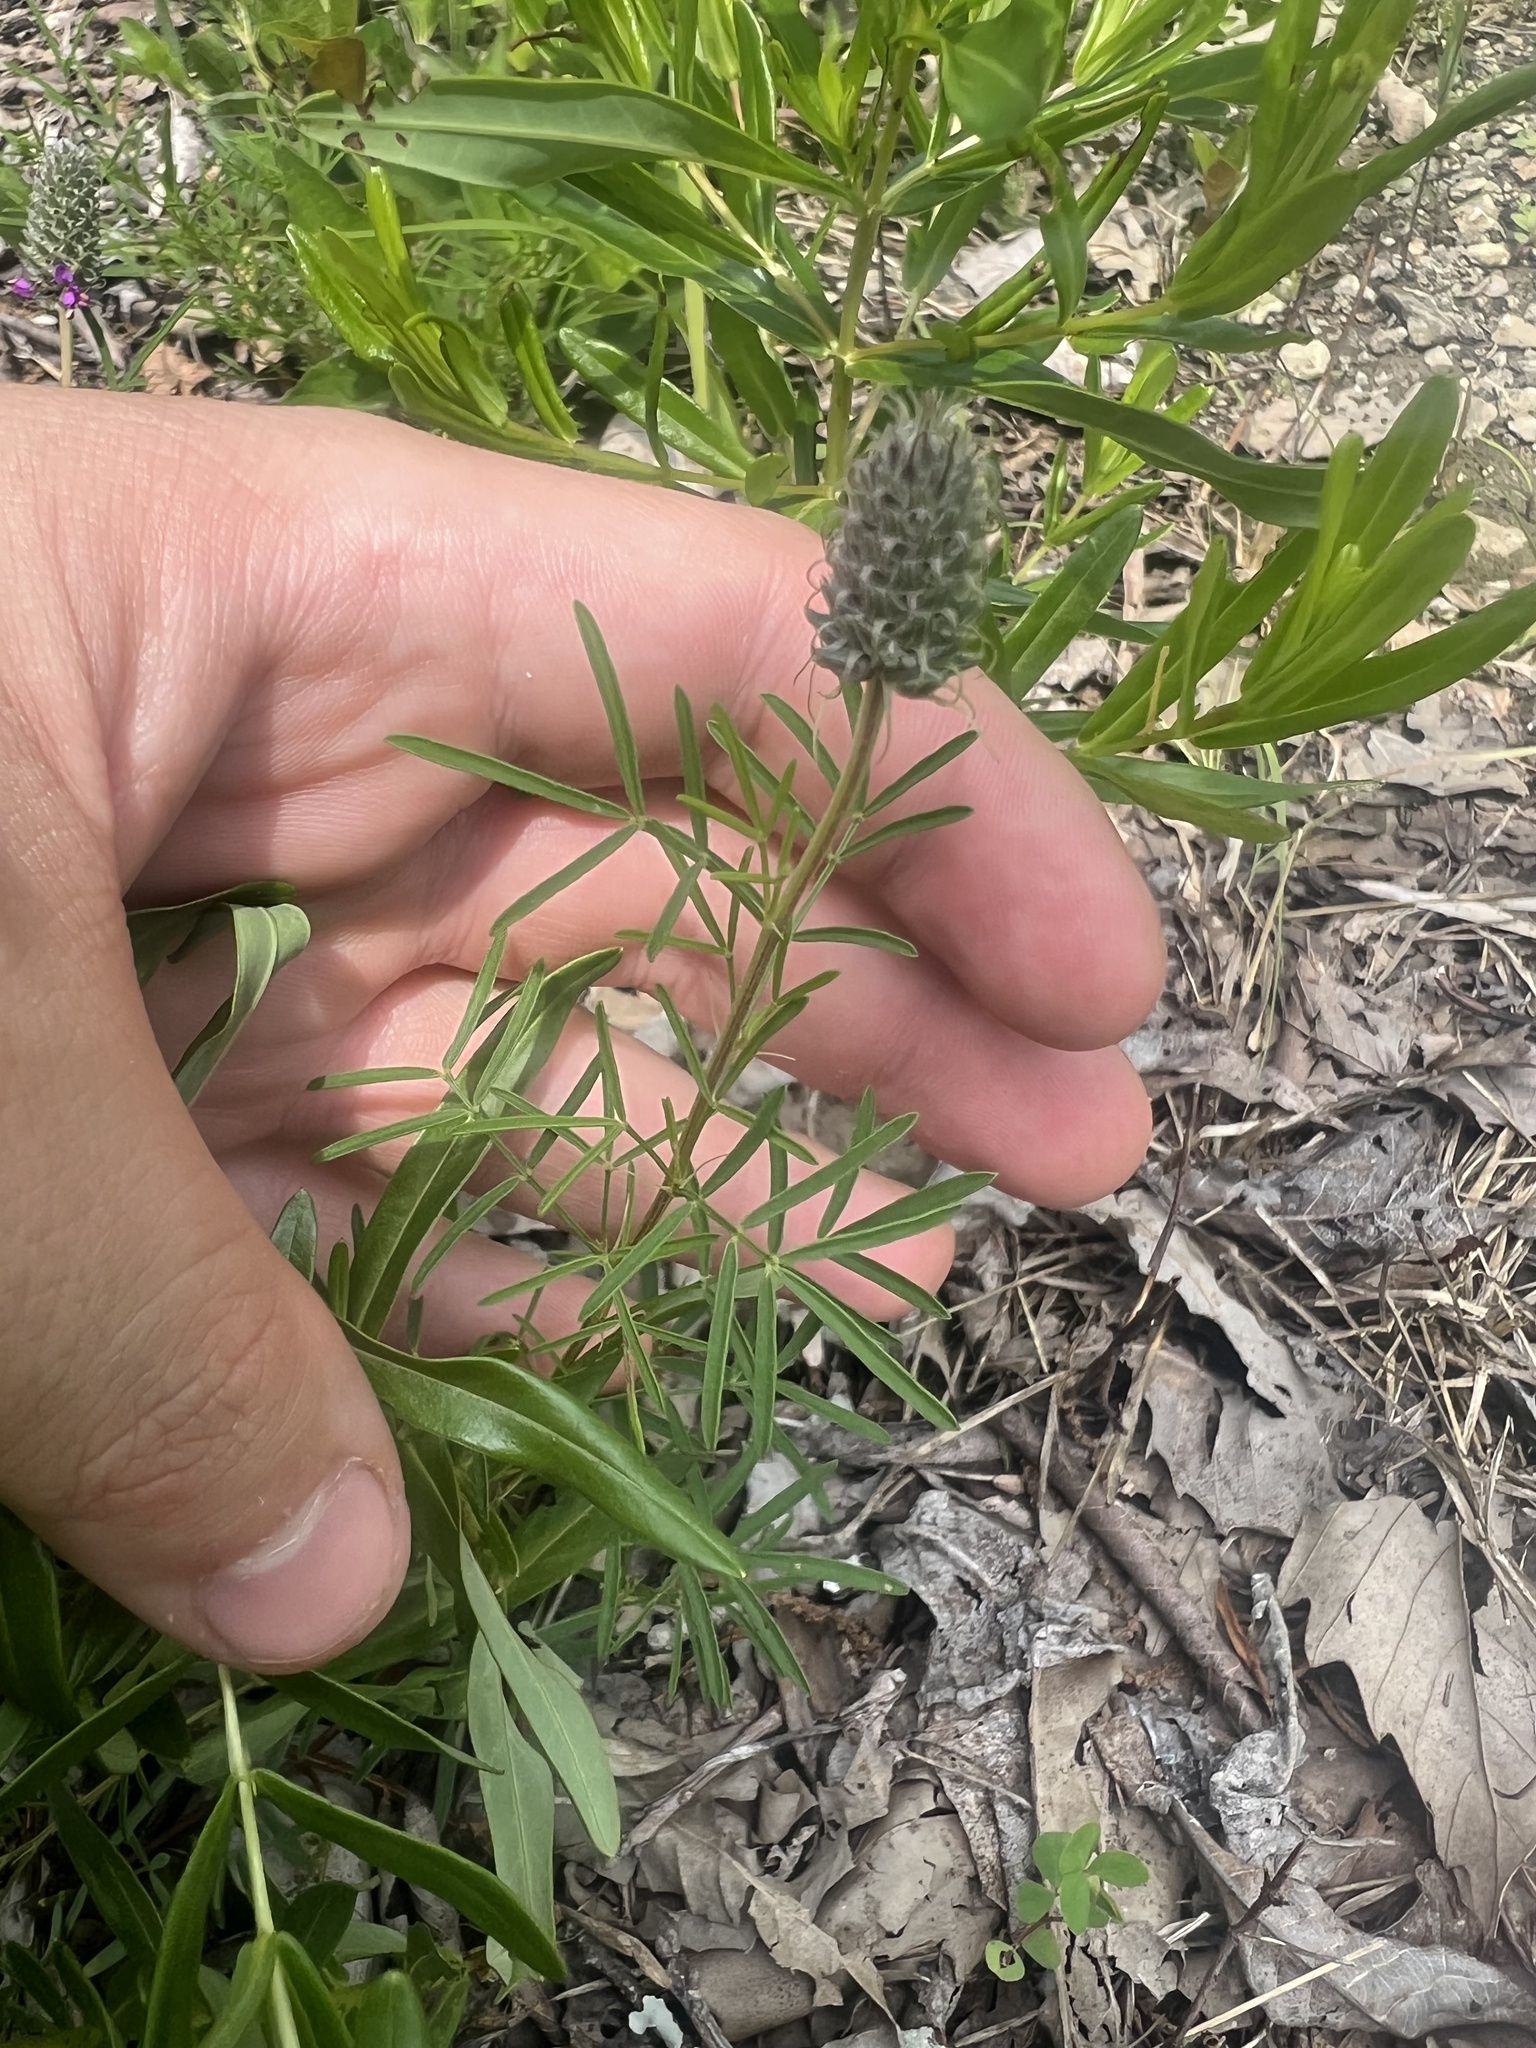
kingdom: Plantae
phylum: Tracheophyta
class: Magnoliopsida
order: Fabales
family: Fabaceae
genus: Dalea
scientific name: Dalea gattingeri
